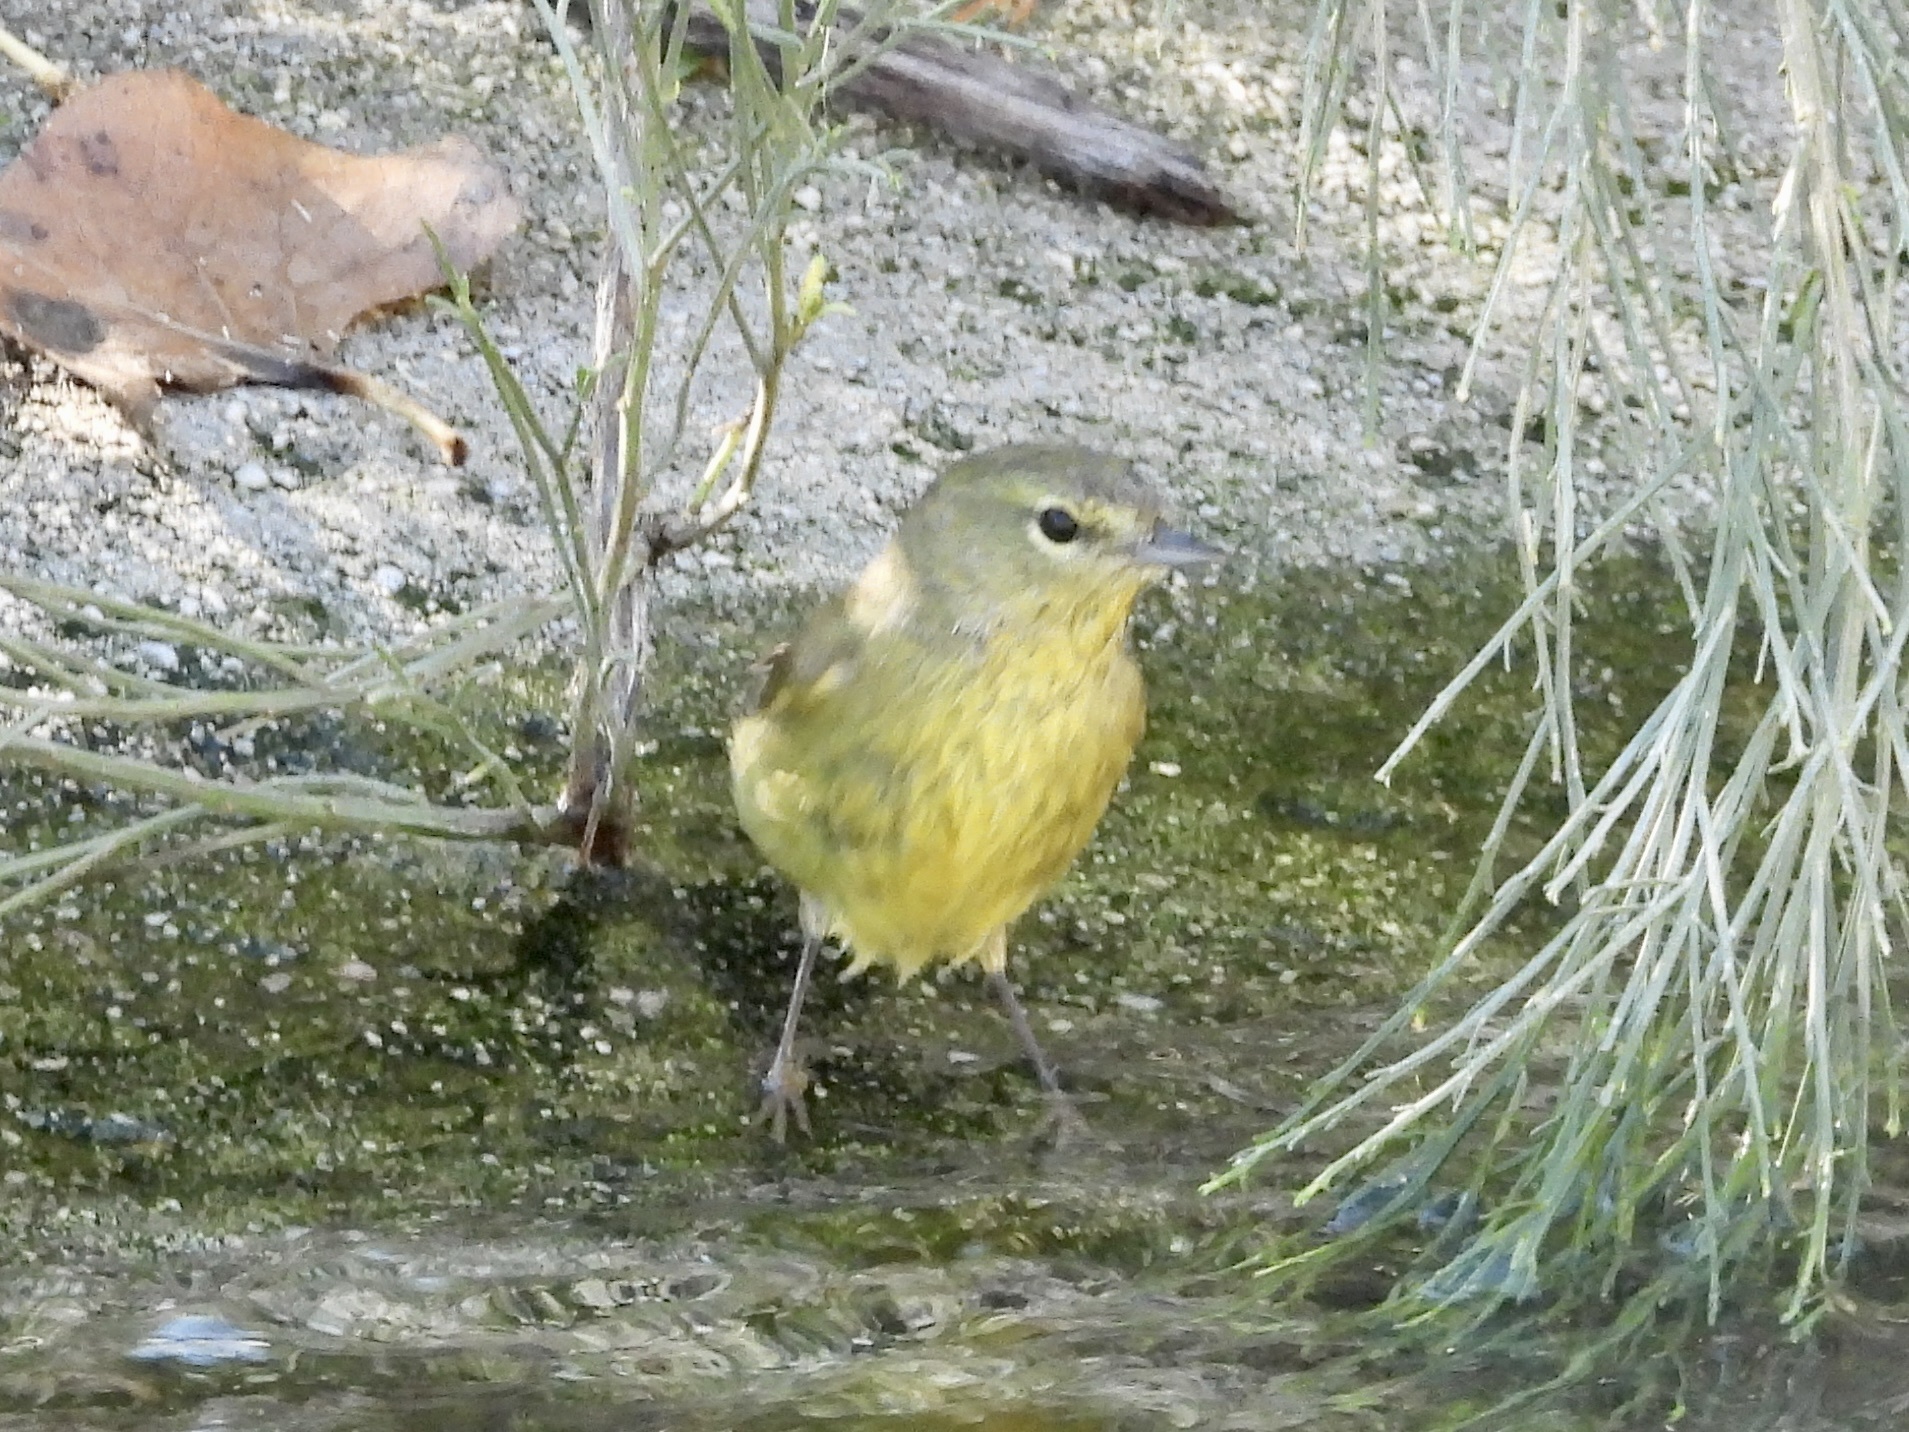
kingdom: Animalia
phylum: Chordata
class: Aves
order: Passeriformes
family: Parulidae
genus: Leiothlypis
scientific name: Leiothlypis celata
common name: Orange-crowned warbler
